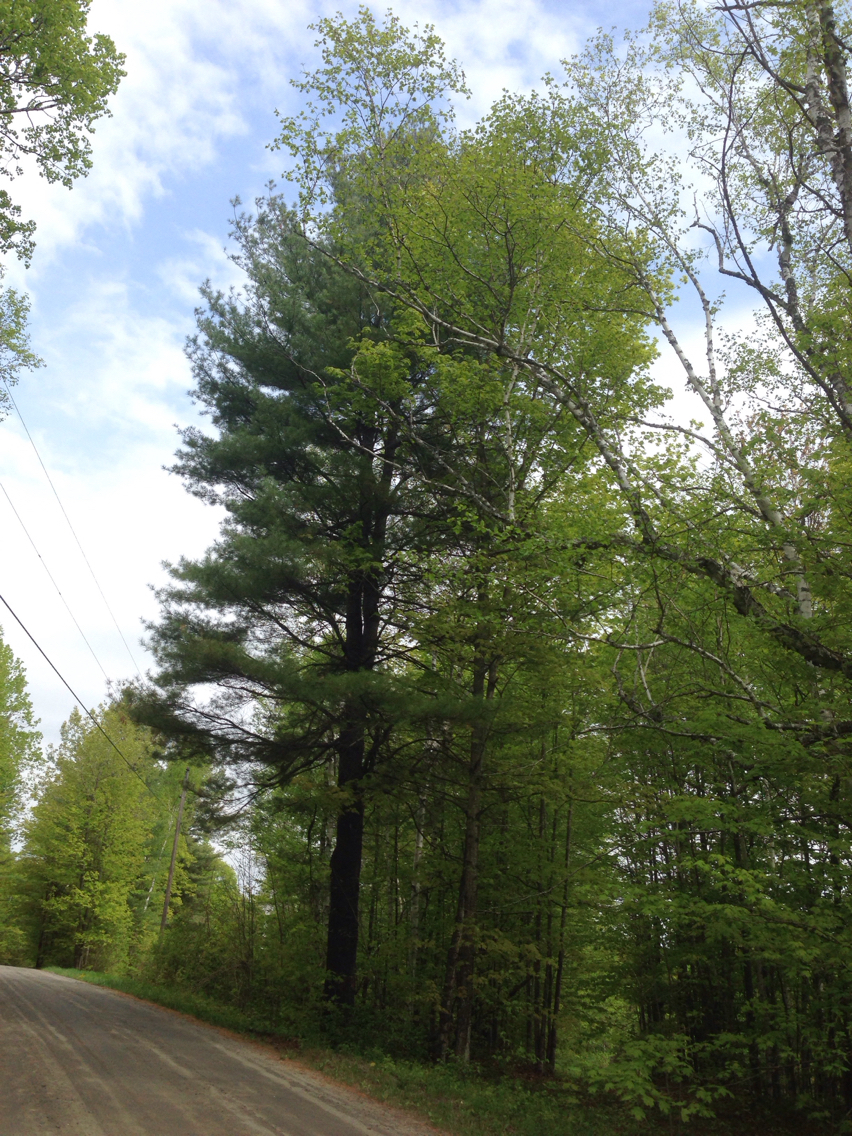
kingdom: Plantae
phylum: Tracheophyta
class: Pinopsida
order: Pinales
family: Pinaceae
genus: Pinus
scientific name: Pinus strobus
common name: Weymouth pine
